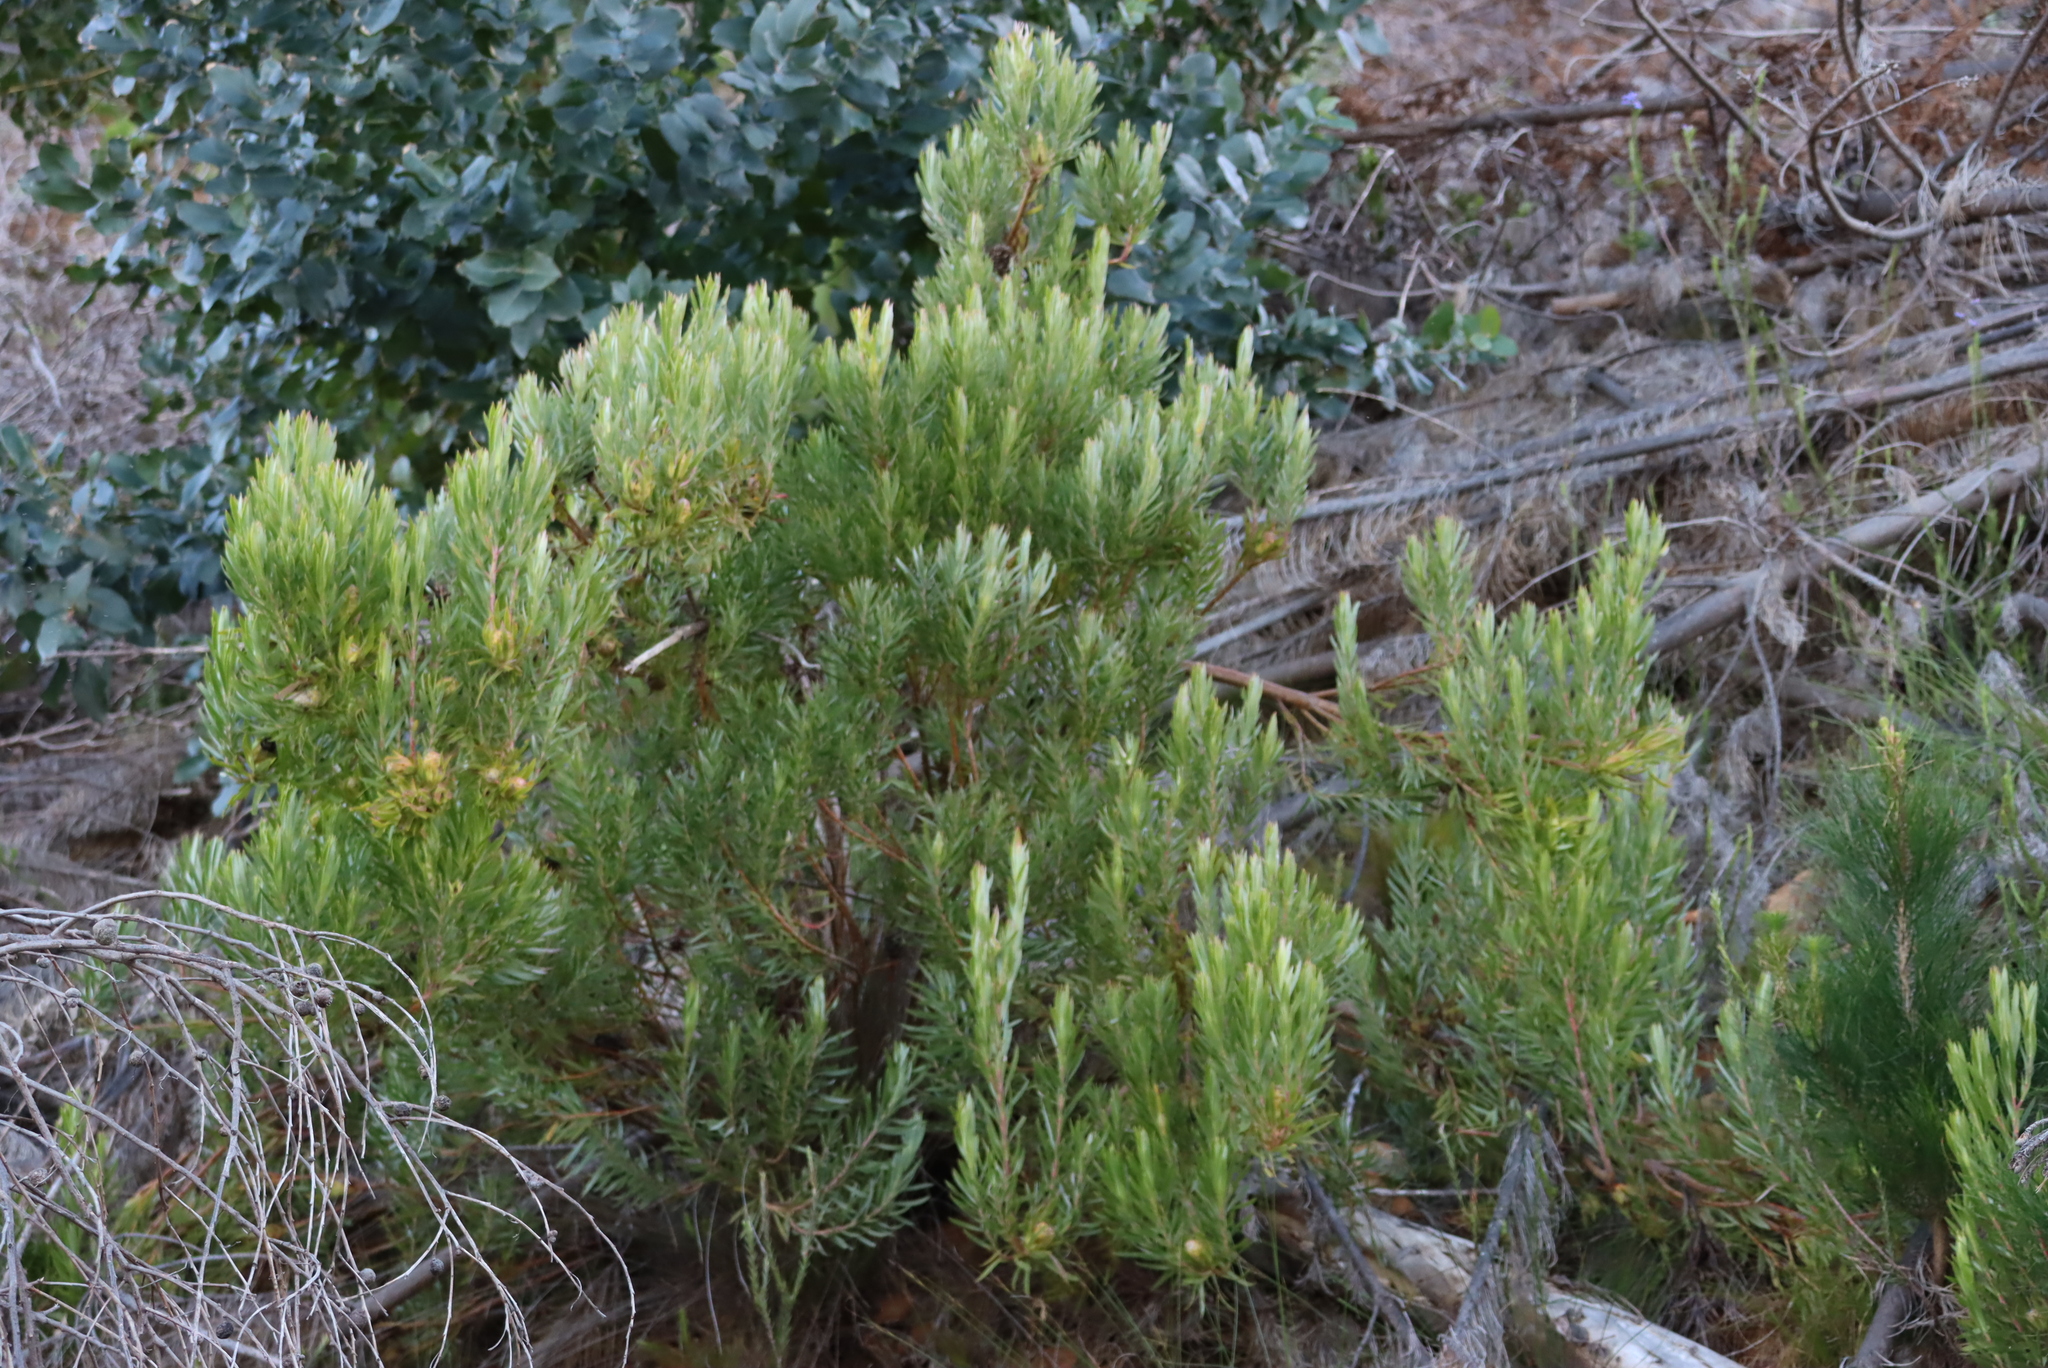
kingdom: Plantae
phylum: Tracheophyta
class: Magnoliopsida
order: Proteales
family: Proteaceae
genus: Leucadendron
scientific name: Leucadendron xanthoconus
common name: Sickle-leaf conebush
